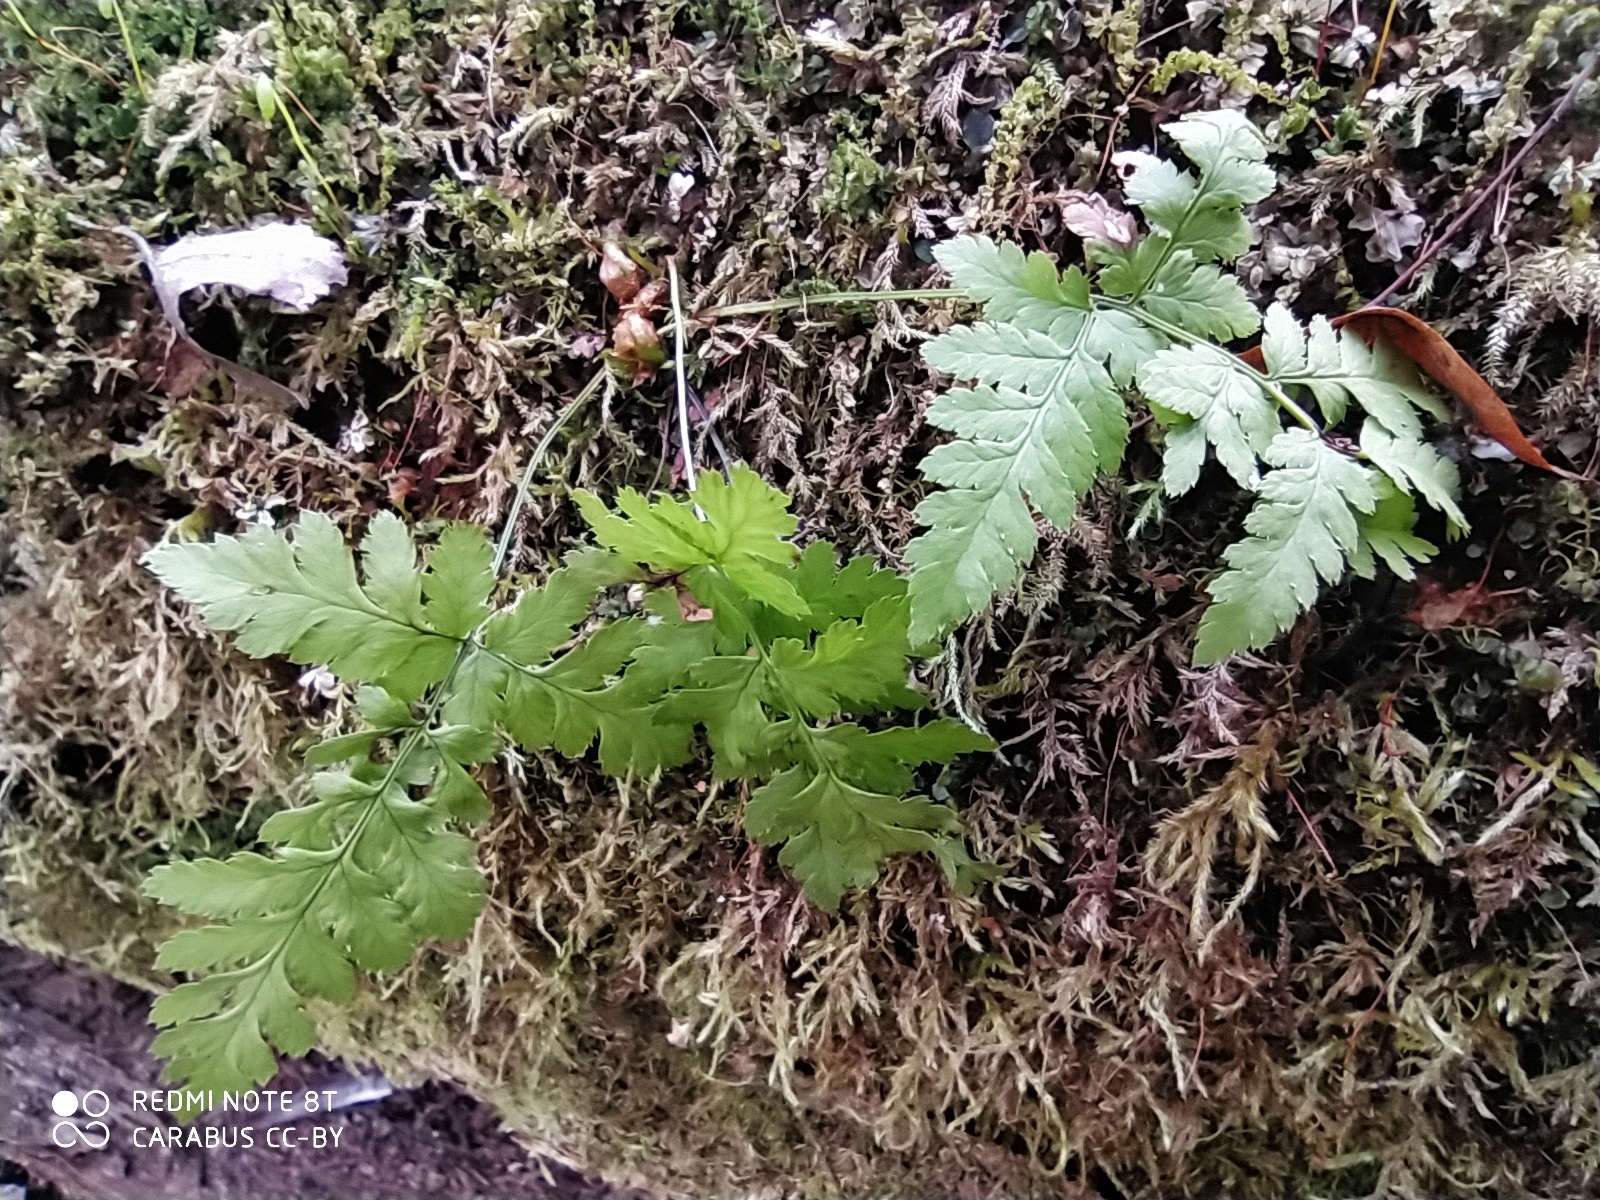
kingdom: Plantae
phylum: Tracheophyta
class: Polypodiopsida
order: Polypodiales
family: Dryopteridaceae
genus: Dryopteris
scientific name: Dryopteris carthusiana
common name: Narrow buckler-fern
